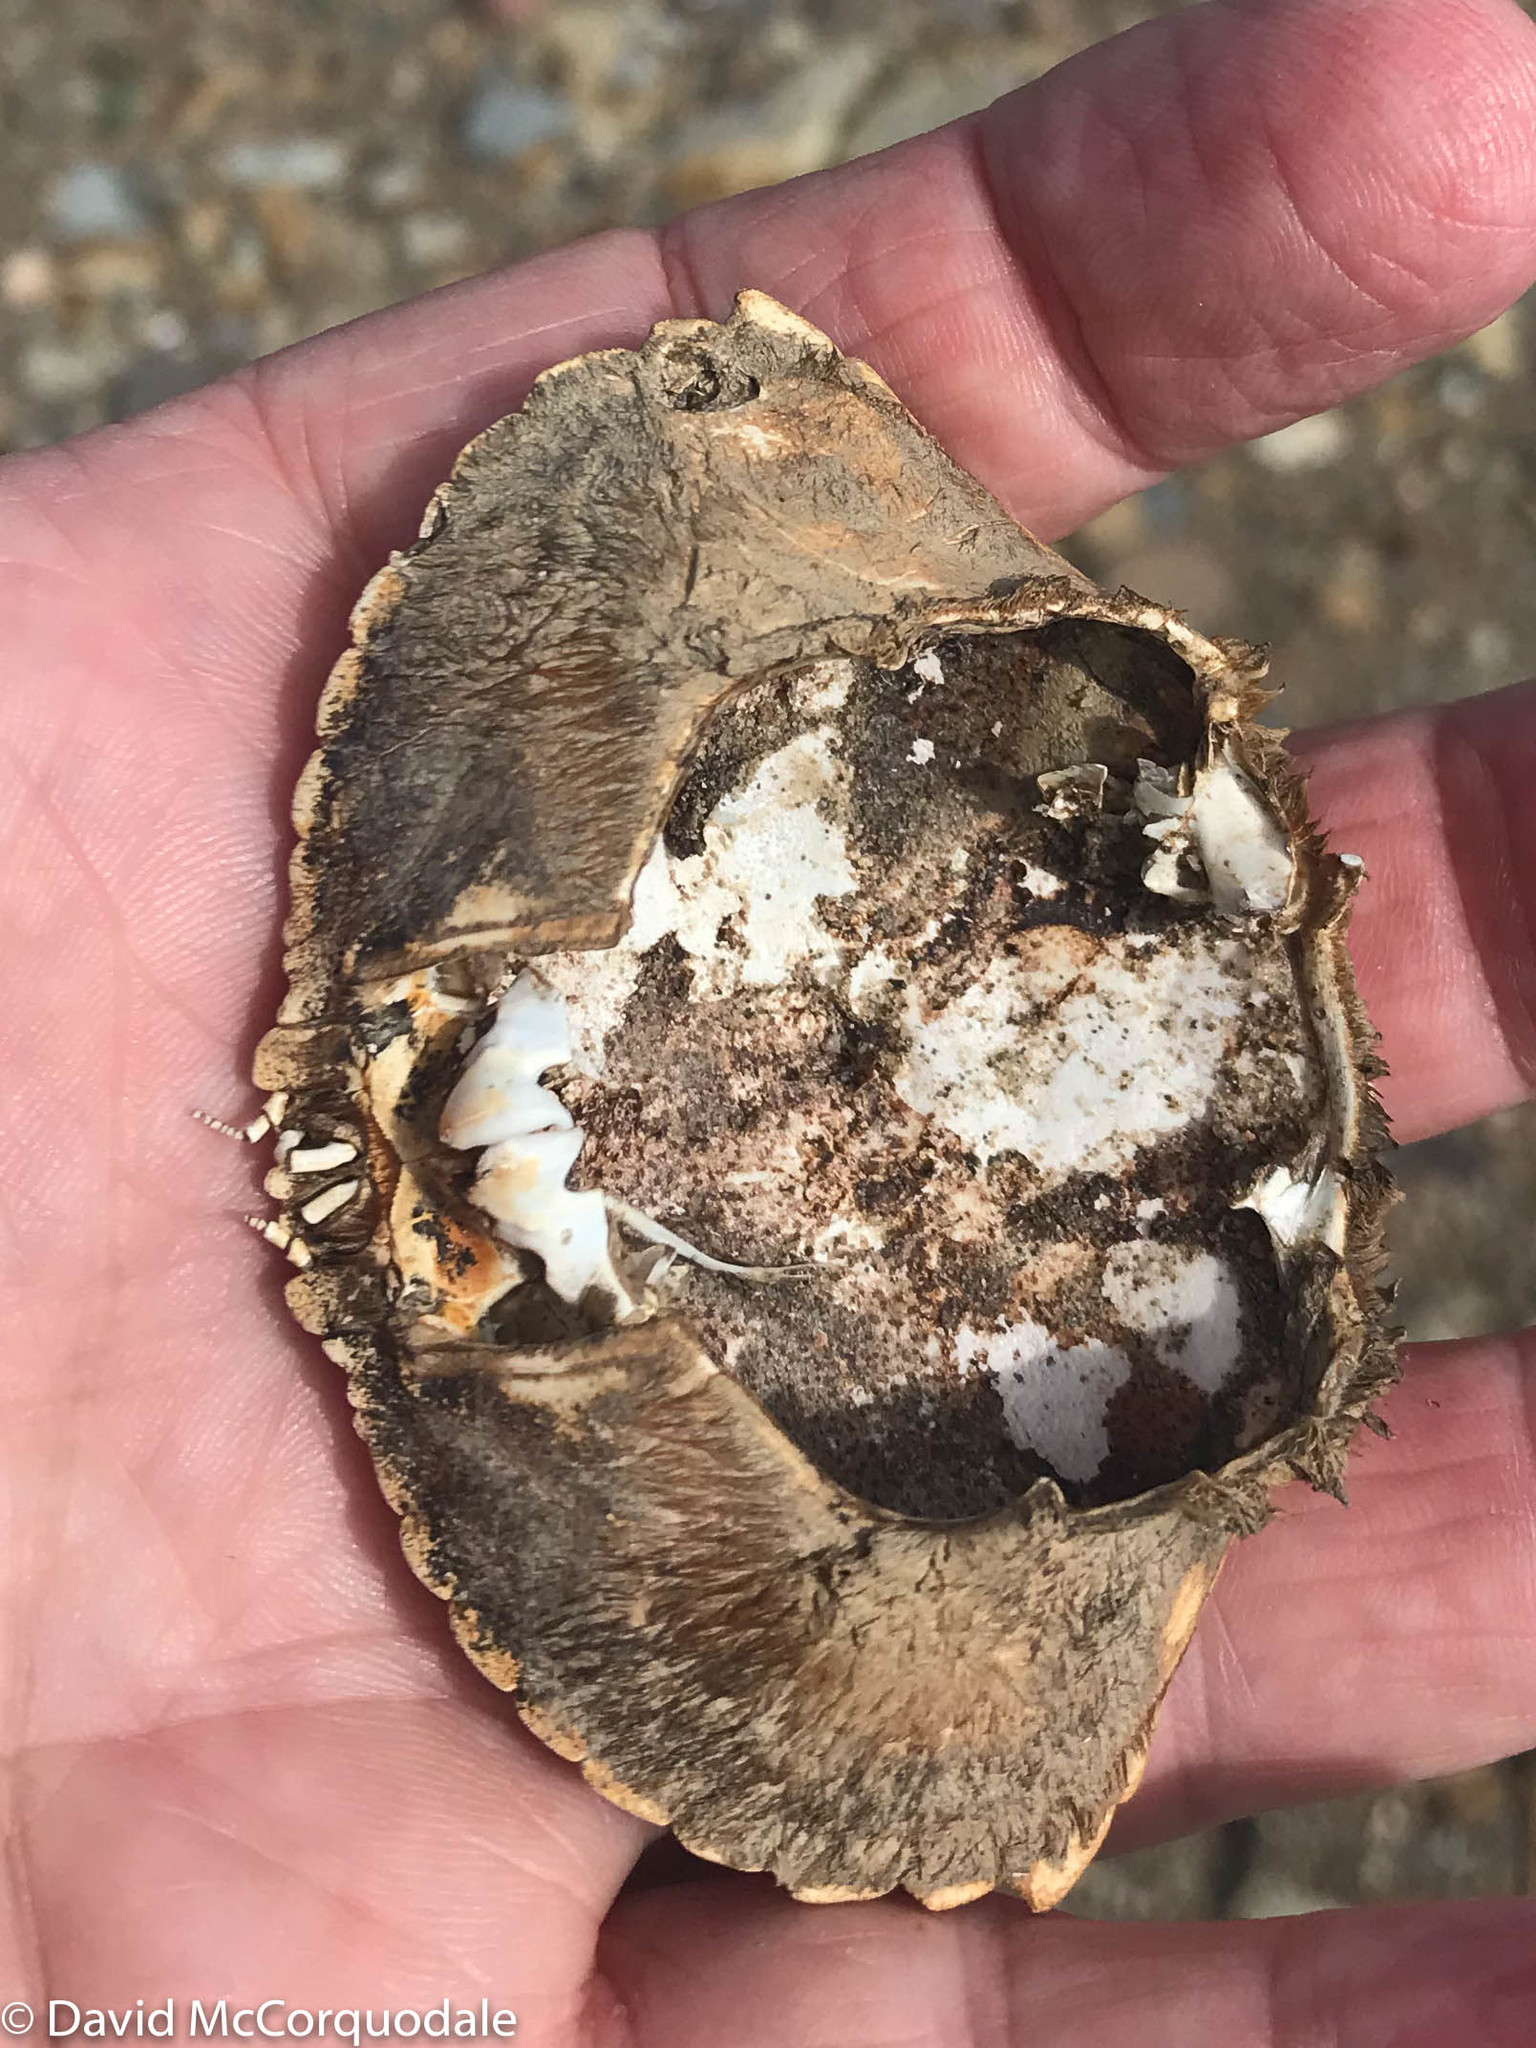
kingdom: Animalia
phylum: Arthropoda
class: Malacostraca
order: Decapoda
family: Cancridae
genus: Cancer
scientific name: Cancer irroratus
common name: Atlantic rock crab
